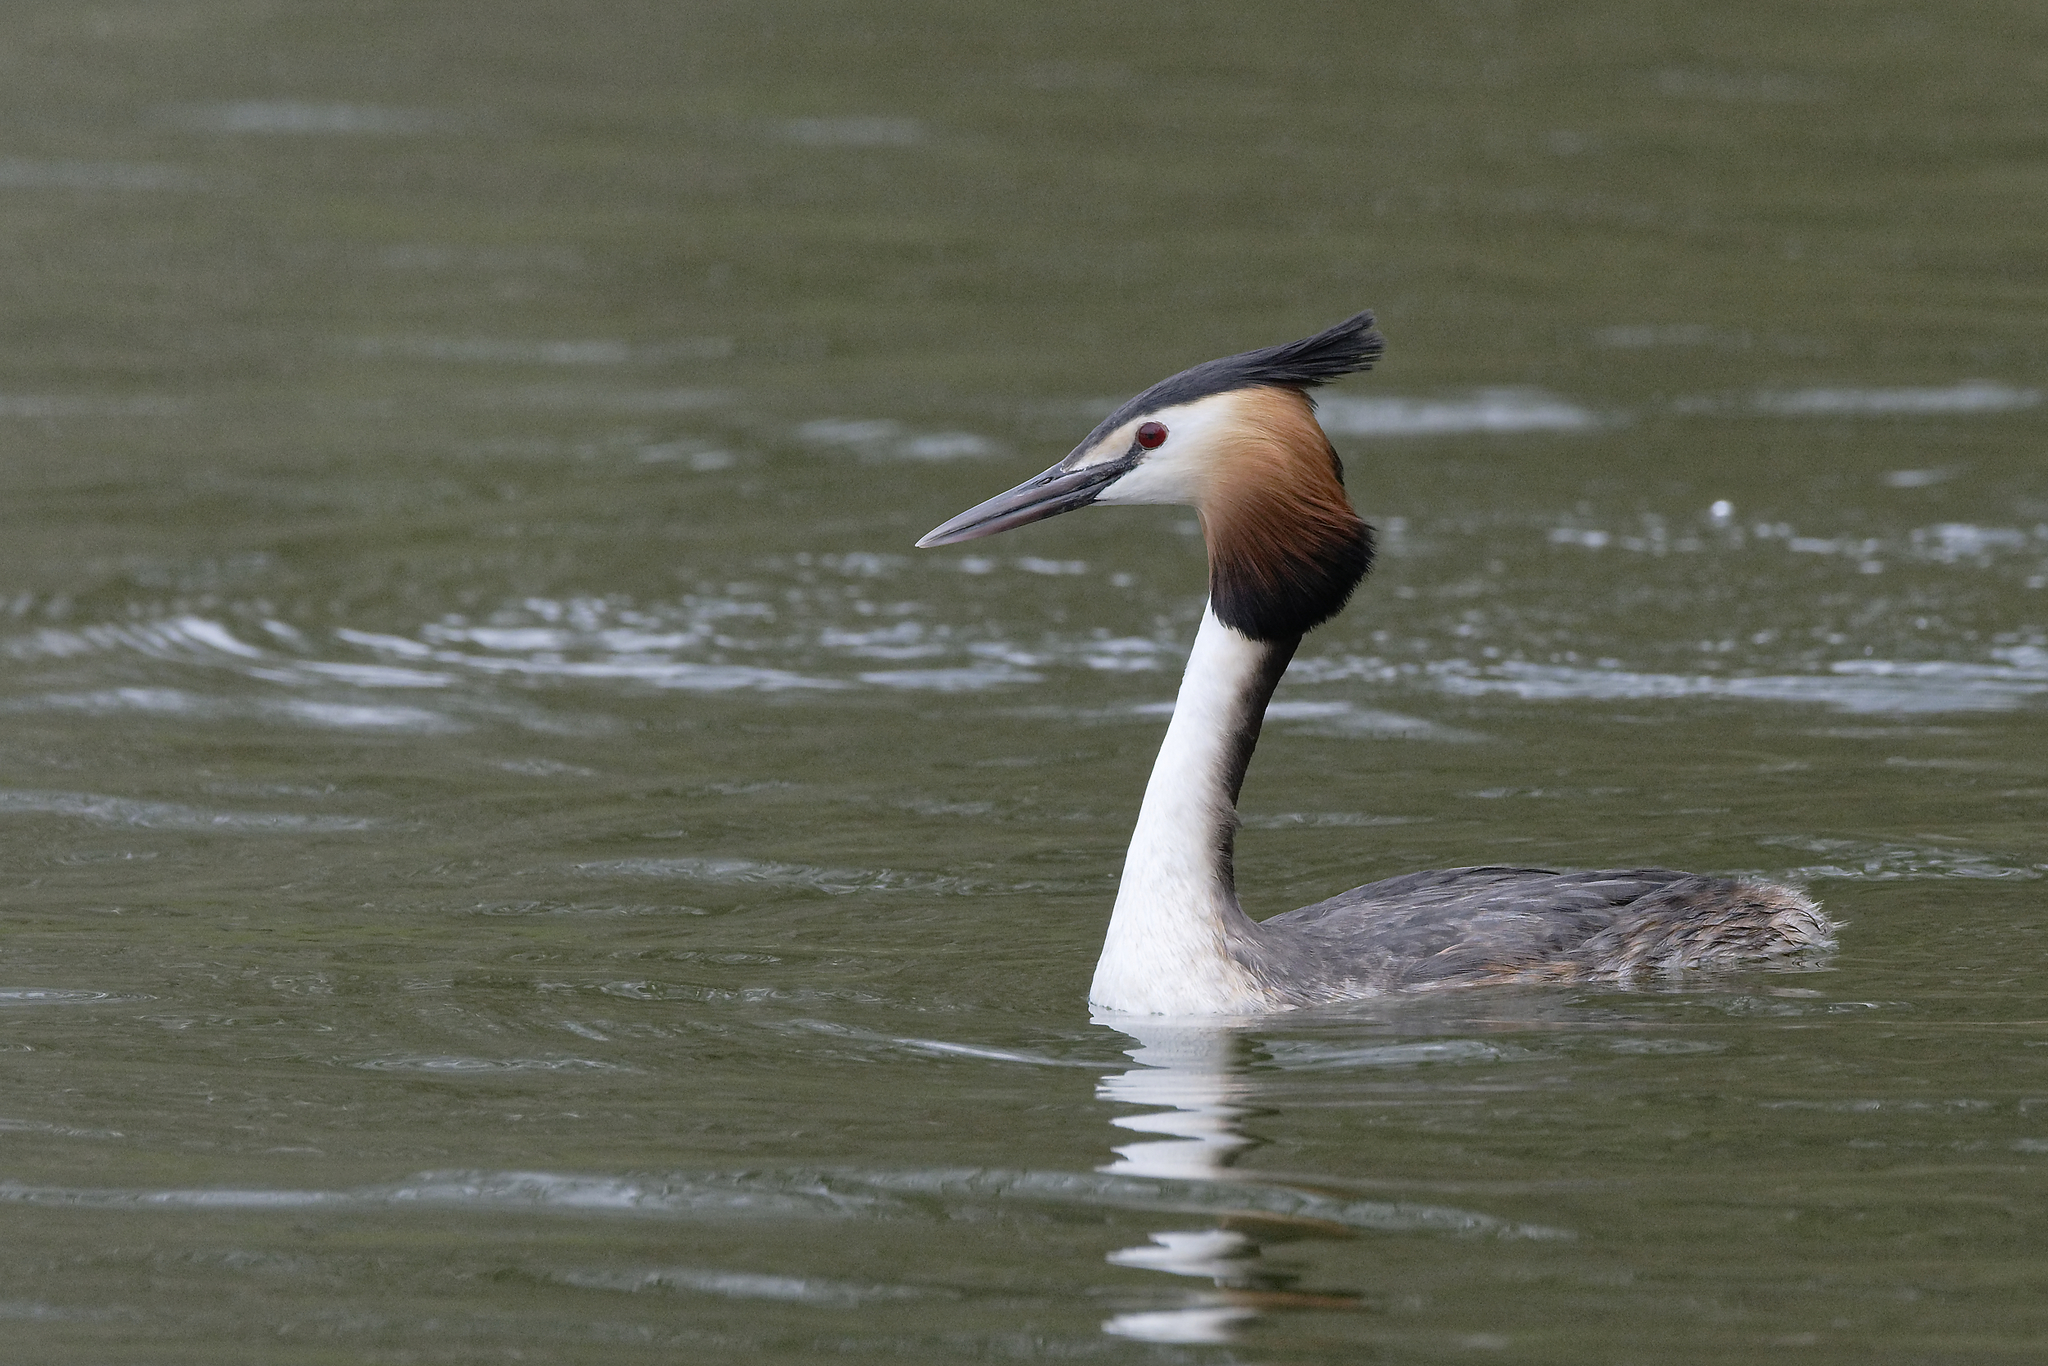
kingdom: Animalia
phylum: Chordata
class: Aves
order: Podicipediformes
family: Podicipedidae
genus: Podiceps
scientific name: Podiceps cristatus
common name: Great crested grebe
